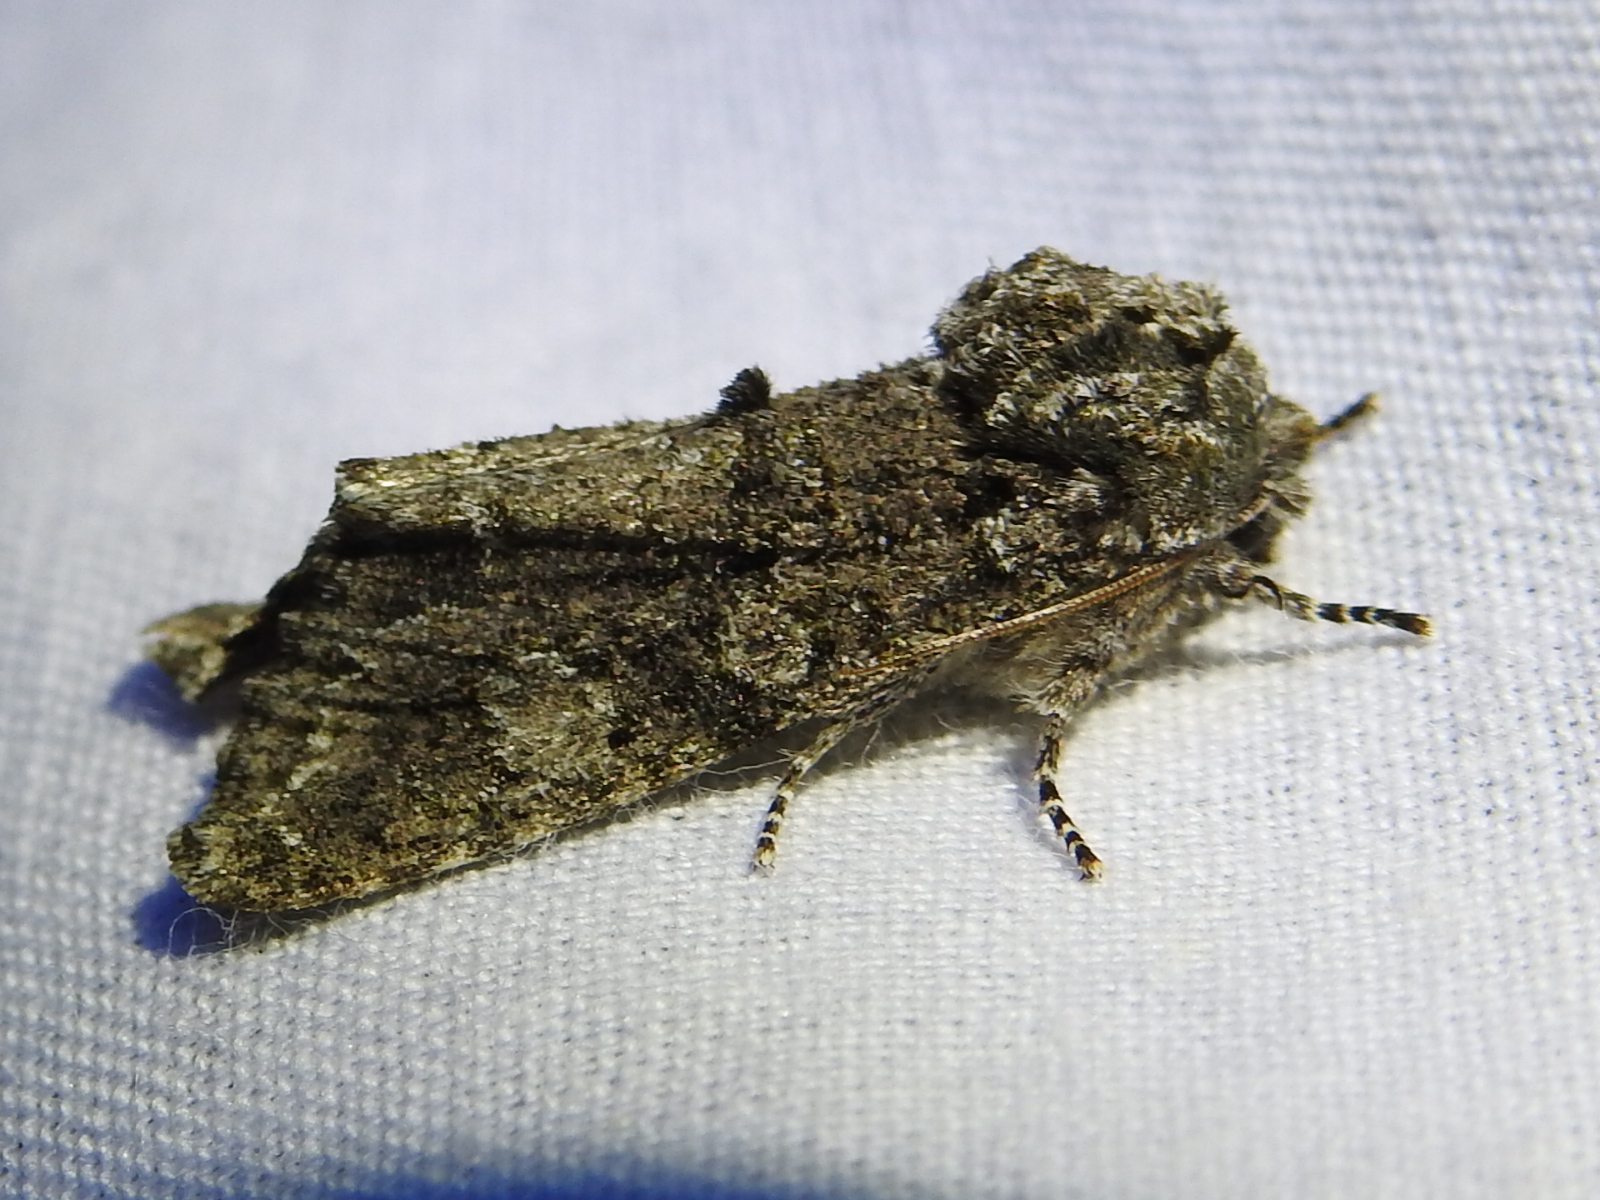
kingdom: Animalia
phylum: Arthropoda
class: Insecta
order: Lepidoptera
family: Noctuidae
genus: Psaphida
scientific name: Psaphida grotei
